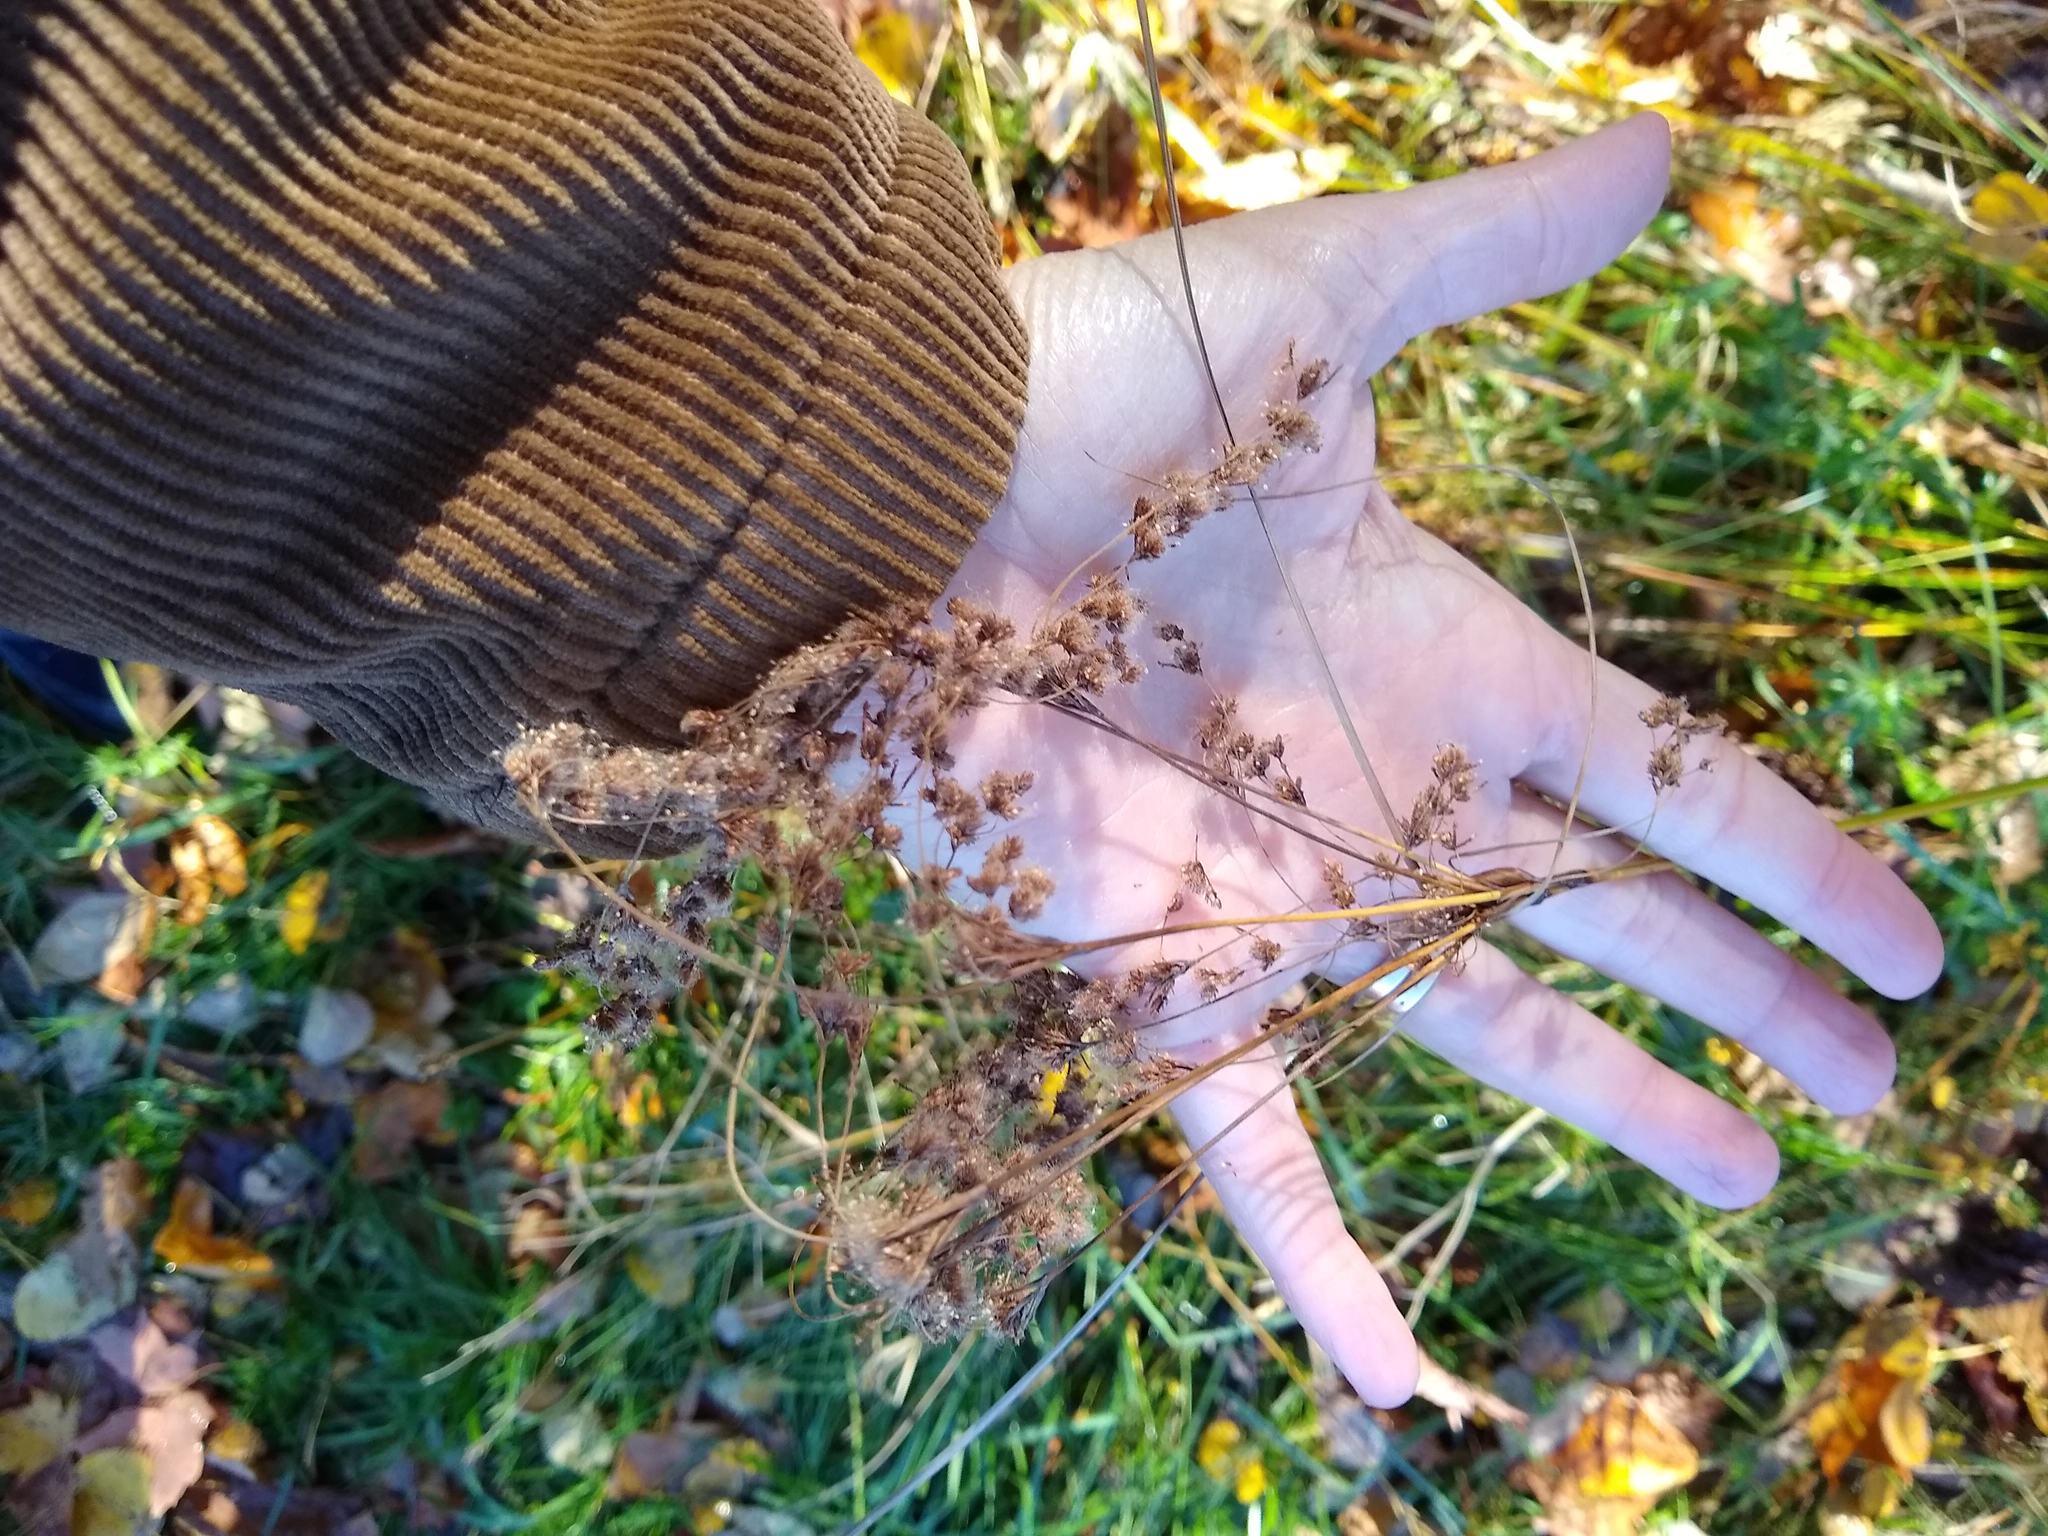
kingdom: Plantae
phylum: Tracheophyta
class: Liliopsida
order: Poales
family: Cyperaceae
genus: Scirpus
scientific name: Scirpus cyperinus
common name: Black-sheathed bulrush
